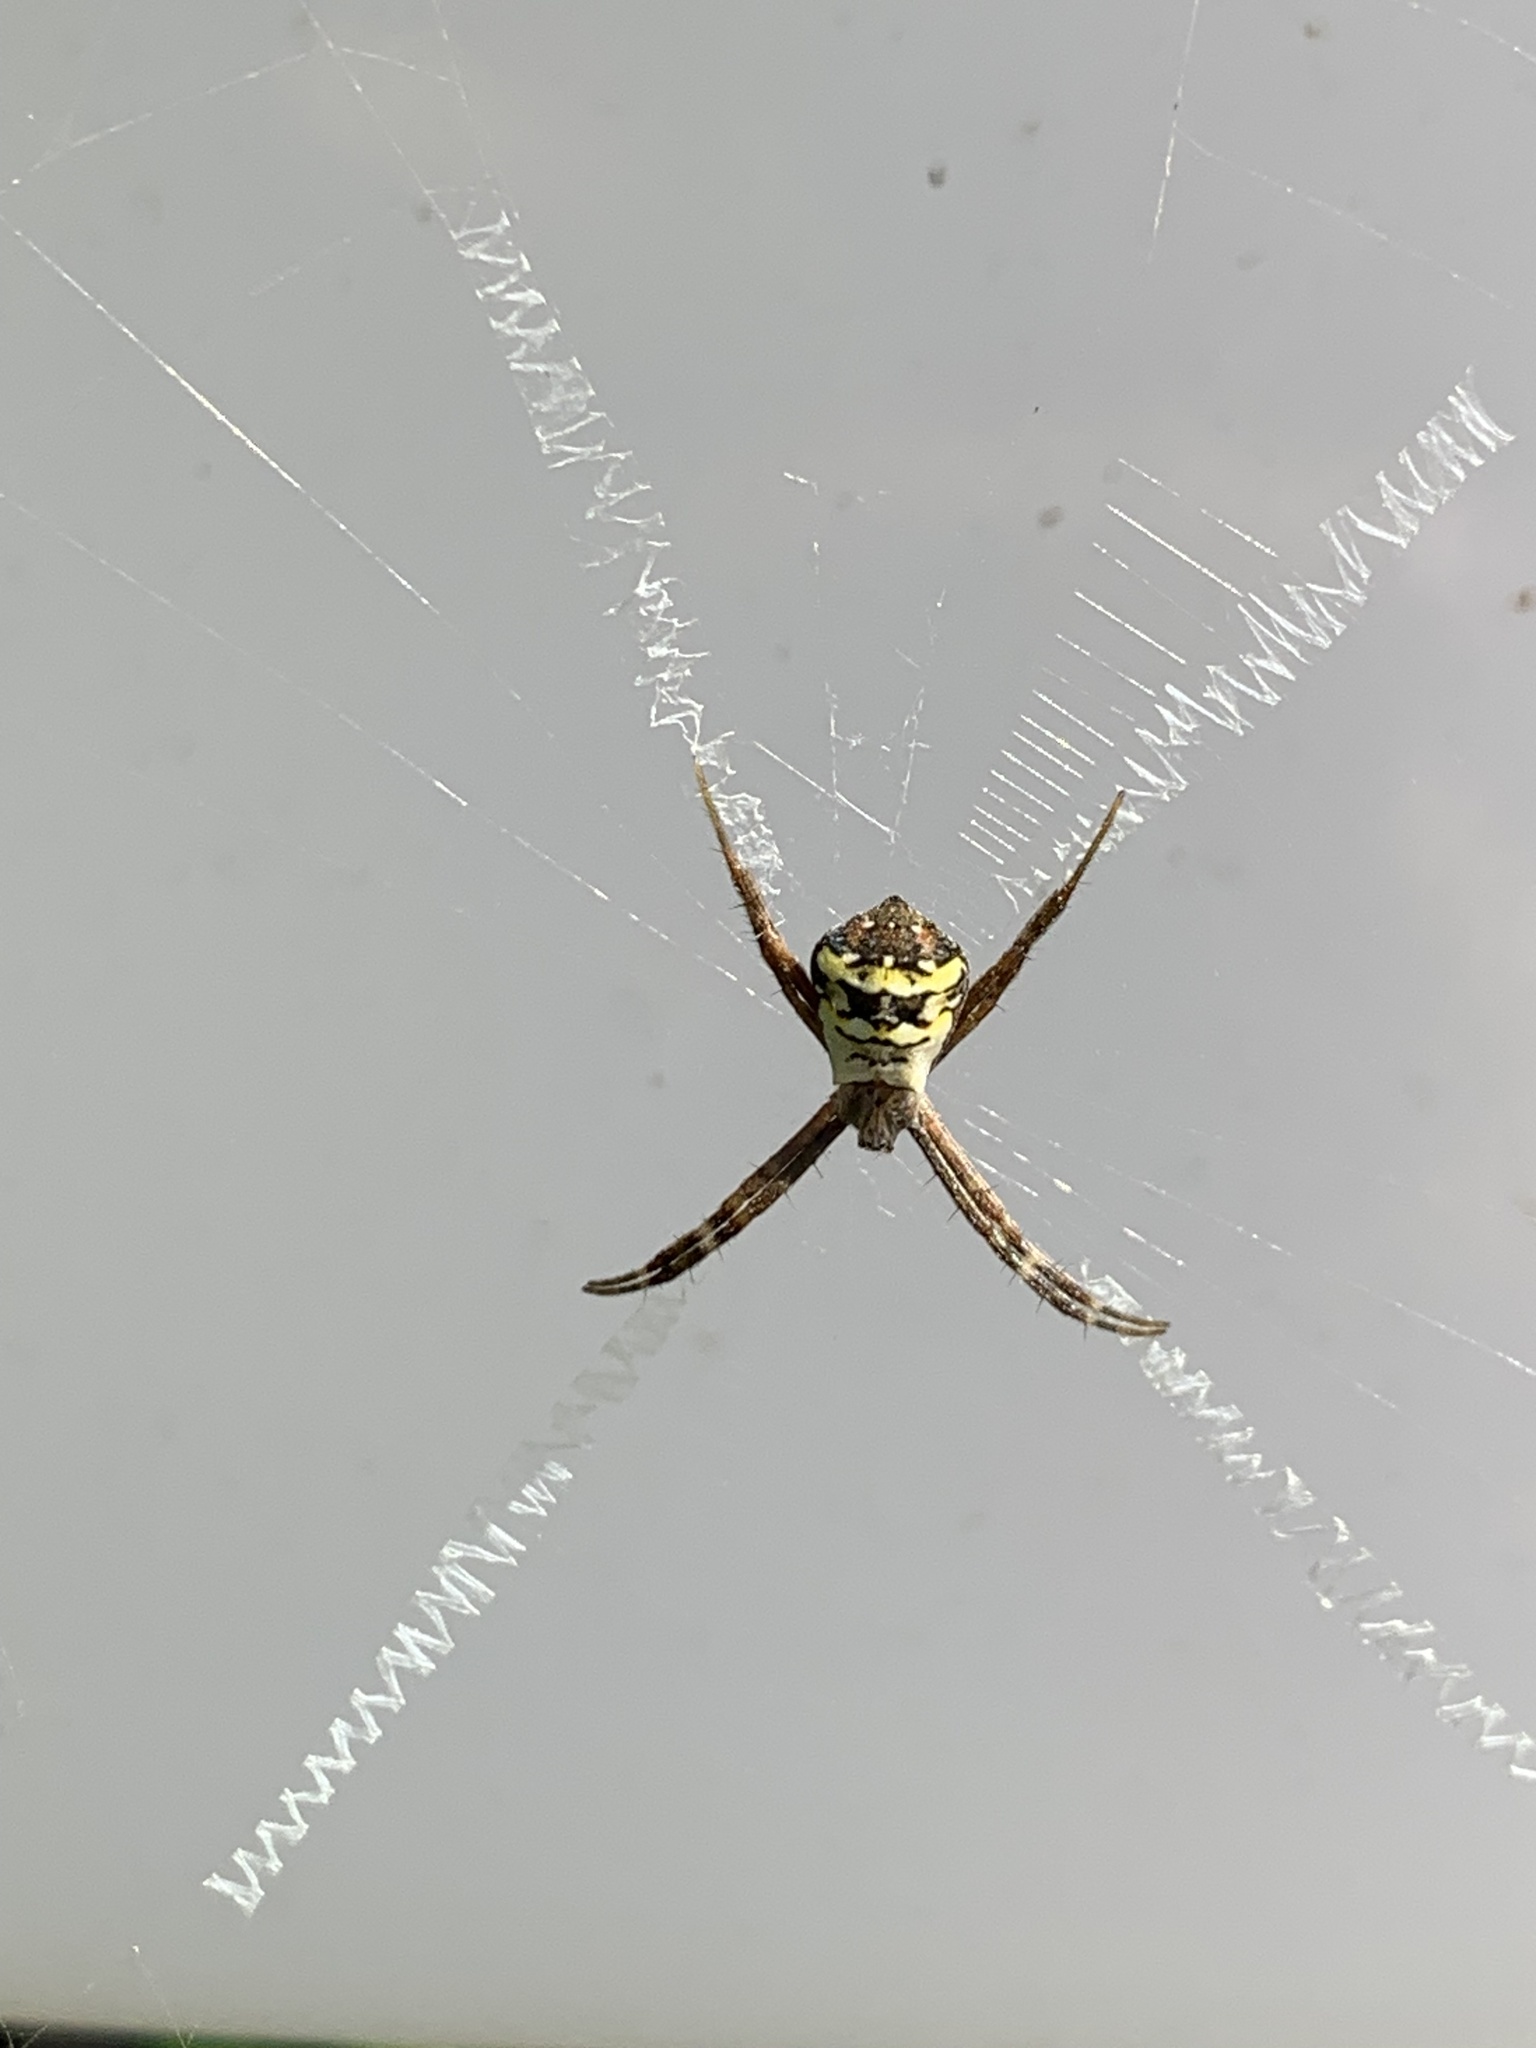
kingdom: Animalia
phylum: Arthropoda
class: Arachnida
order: Araneae
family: Araneidae
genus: Argiope
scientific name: Argiope anasuja
